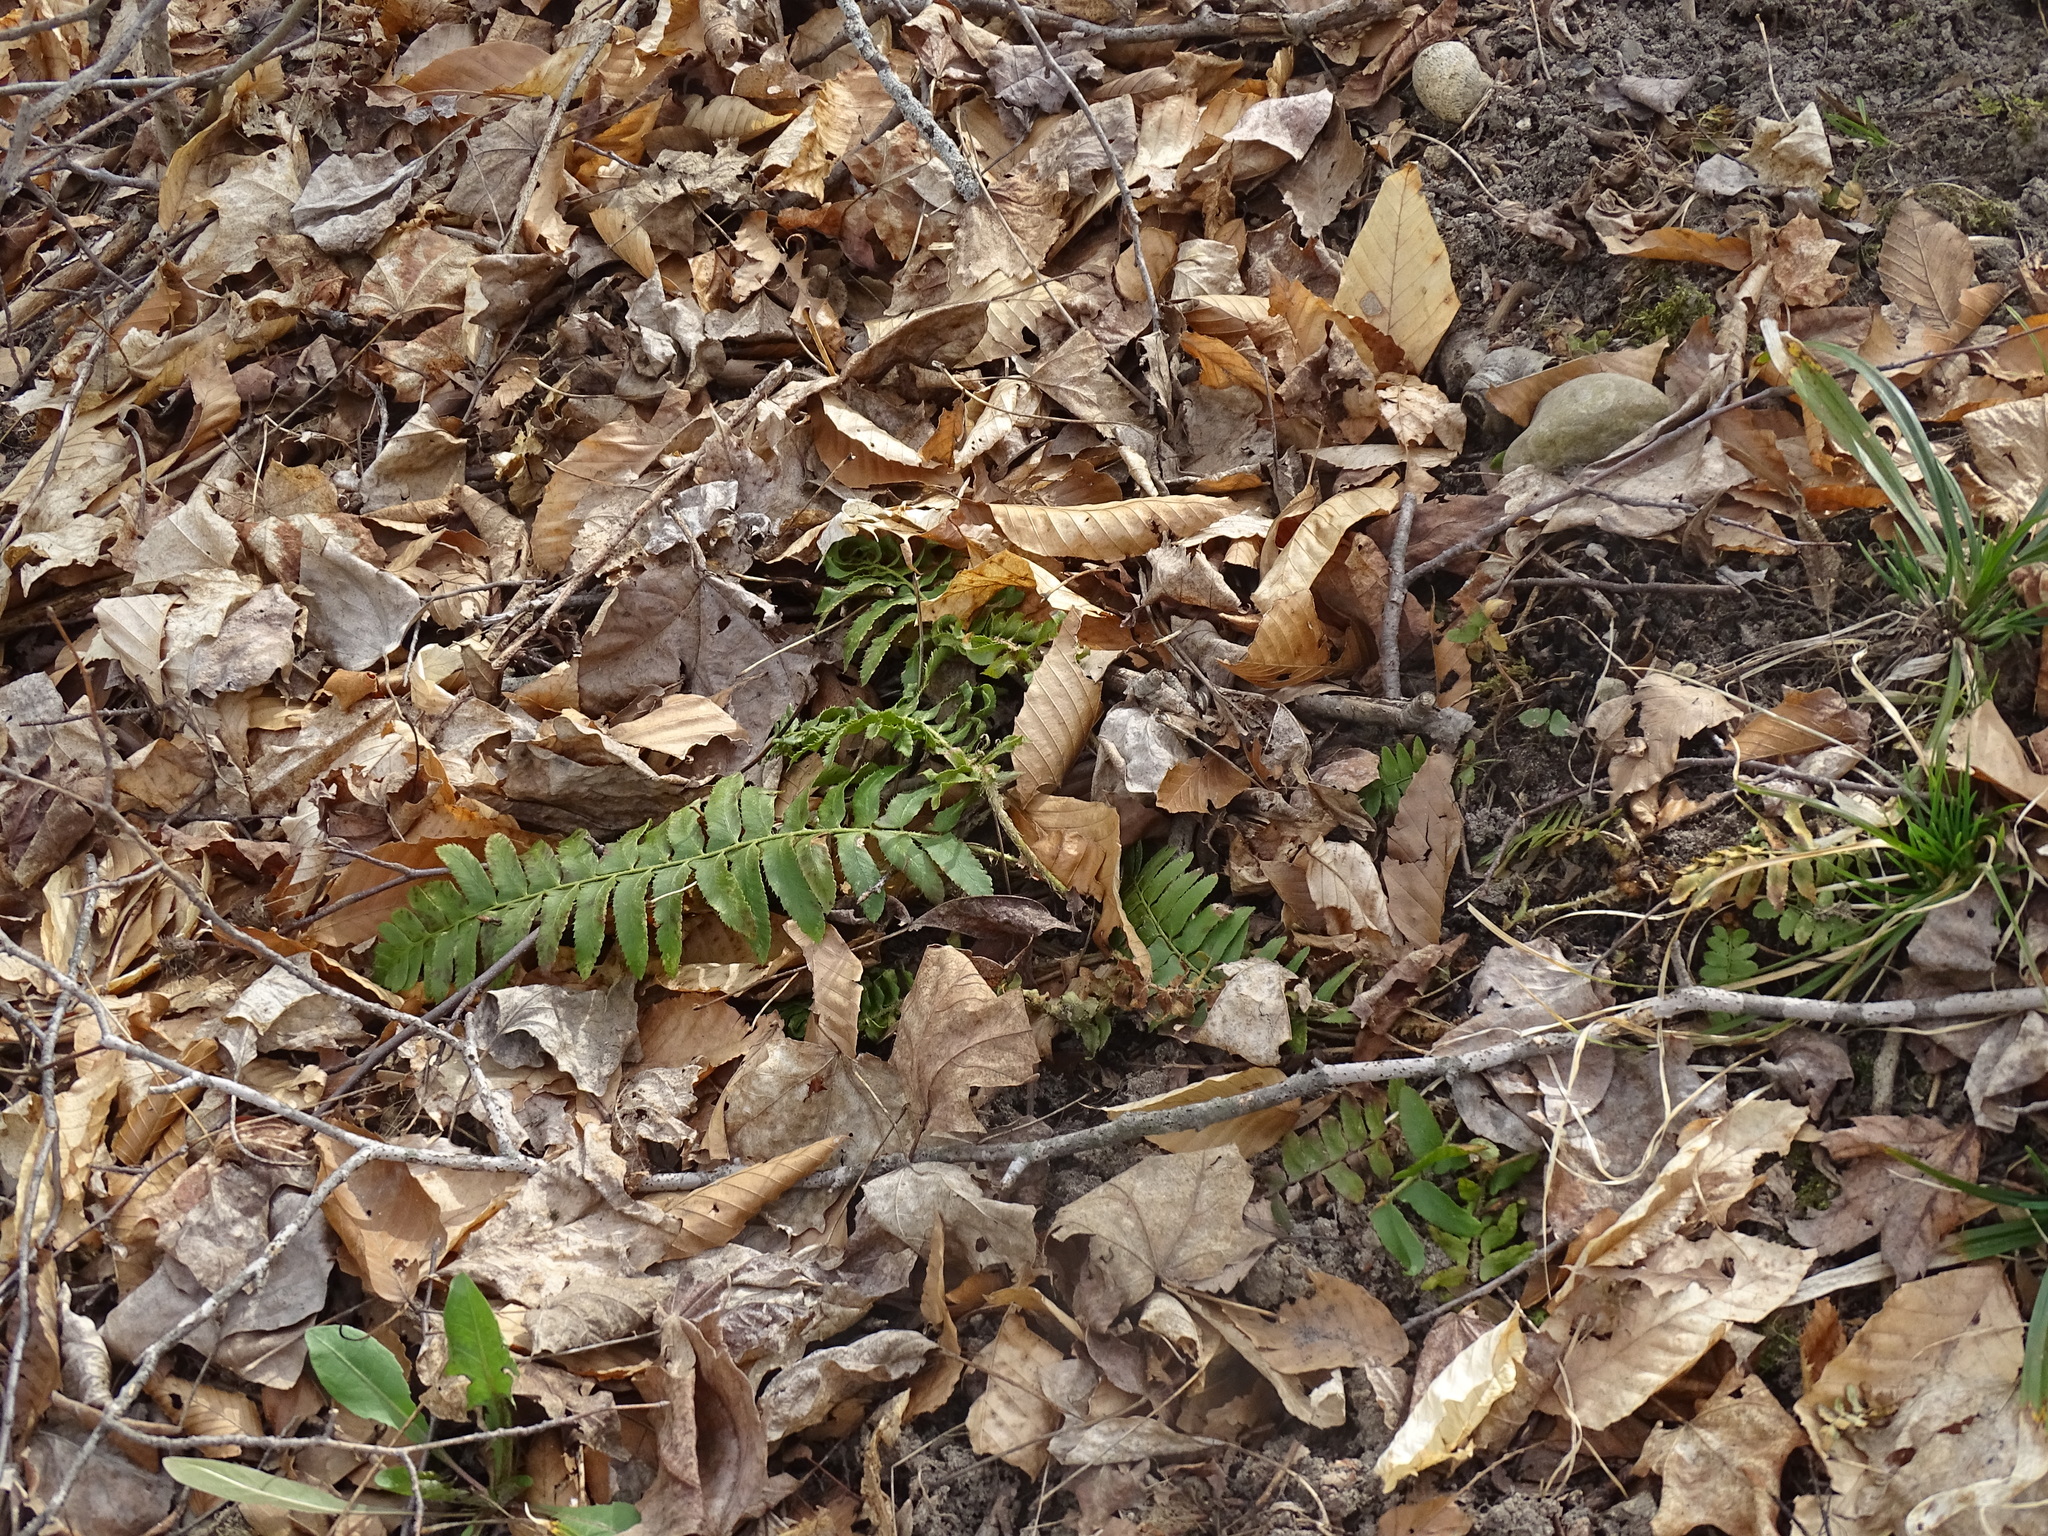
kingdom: Plantae
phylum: Tracheophyta
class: Polypodiopsida
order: Polypodiales
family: Dryopteridaceae
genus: Polystichum
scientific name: Polystichum acrostichoides
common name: Christmas fern
